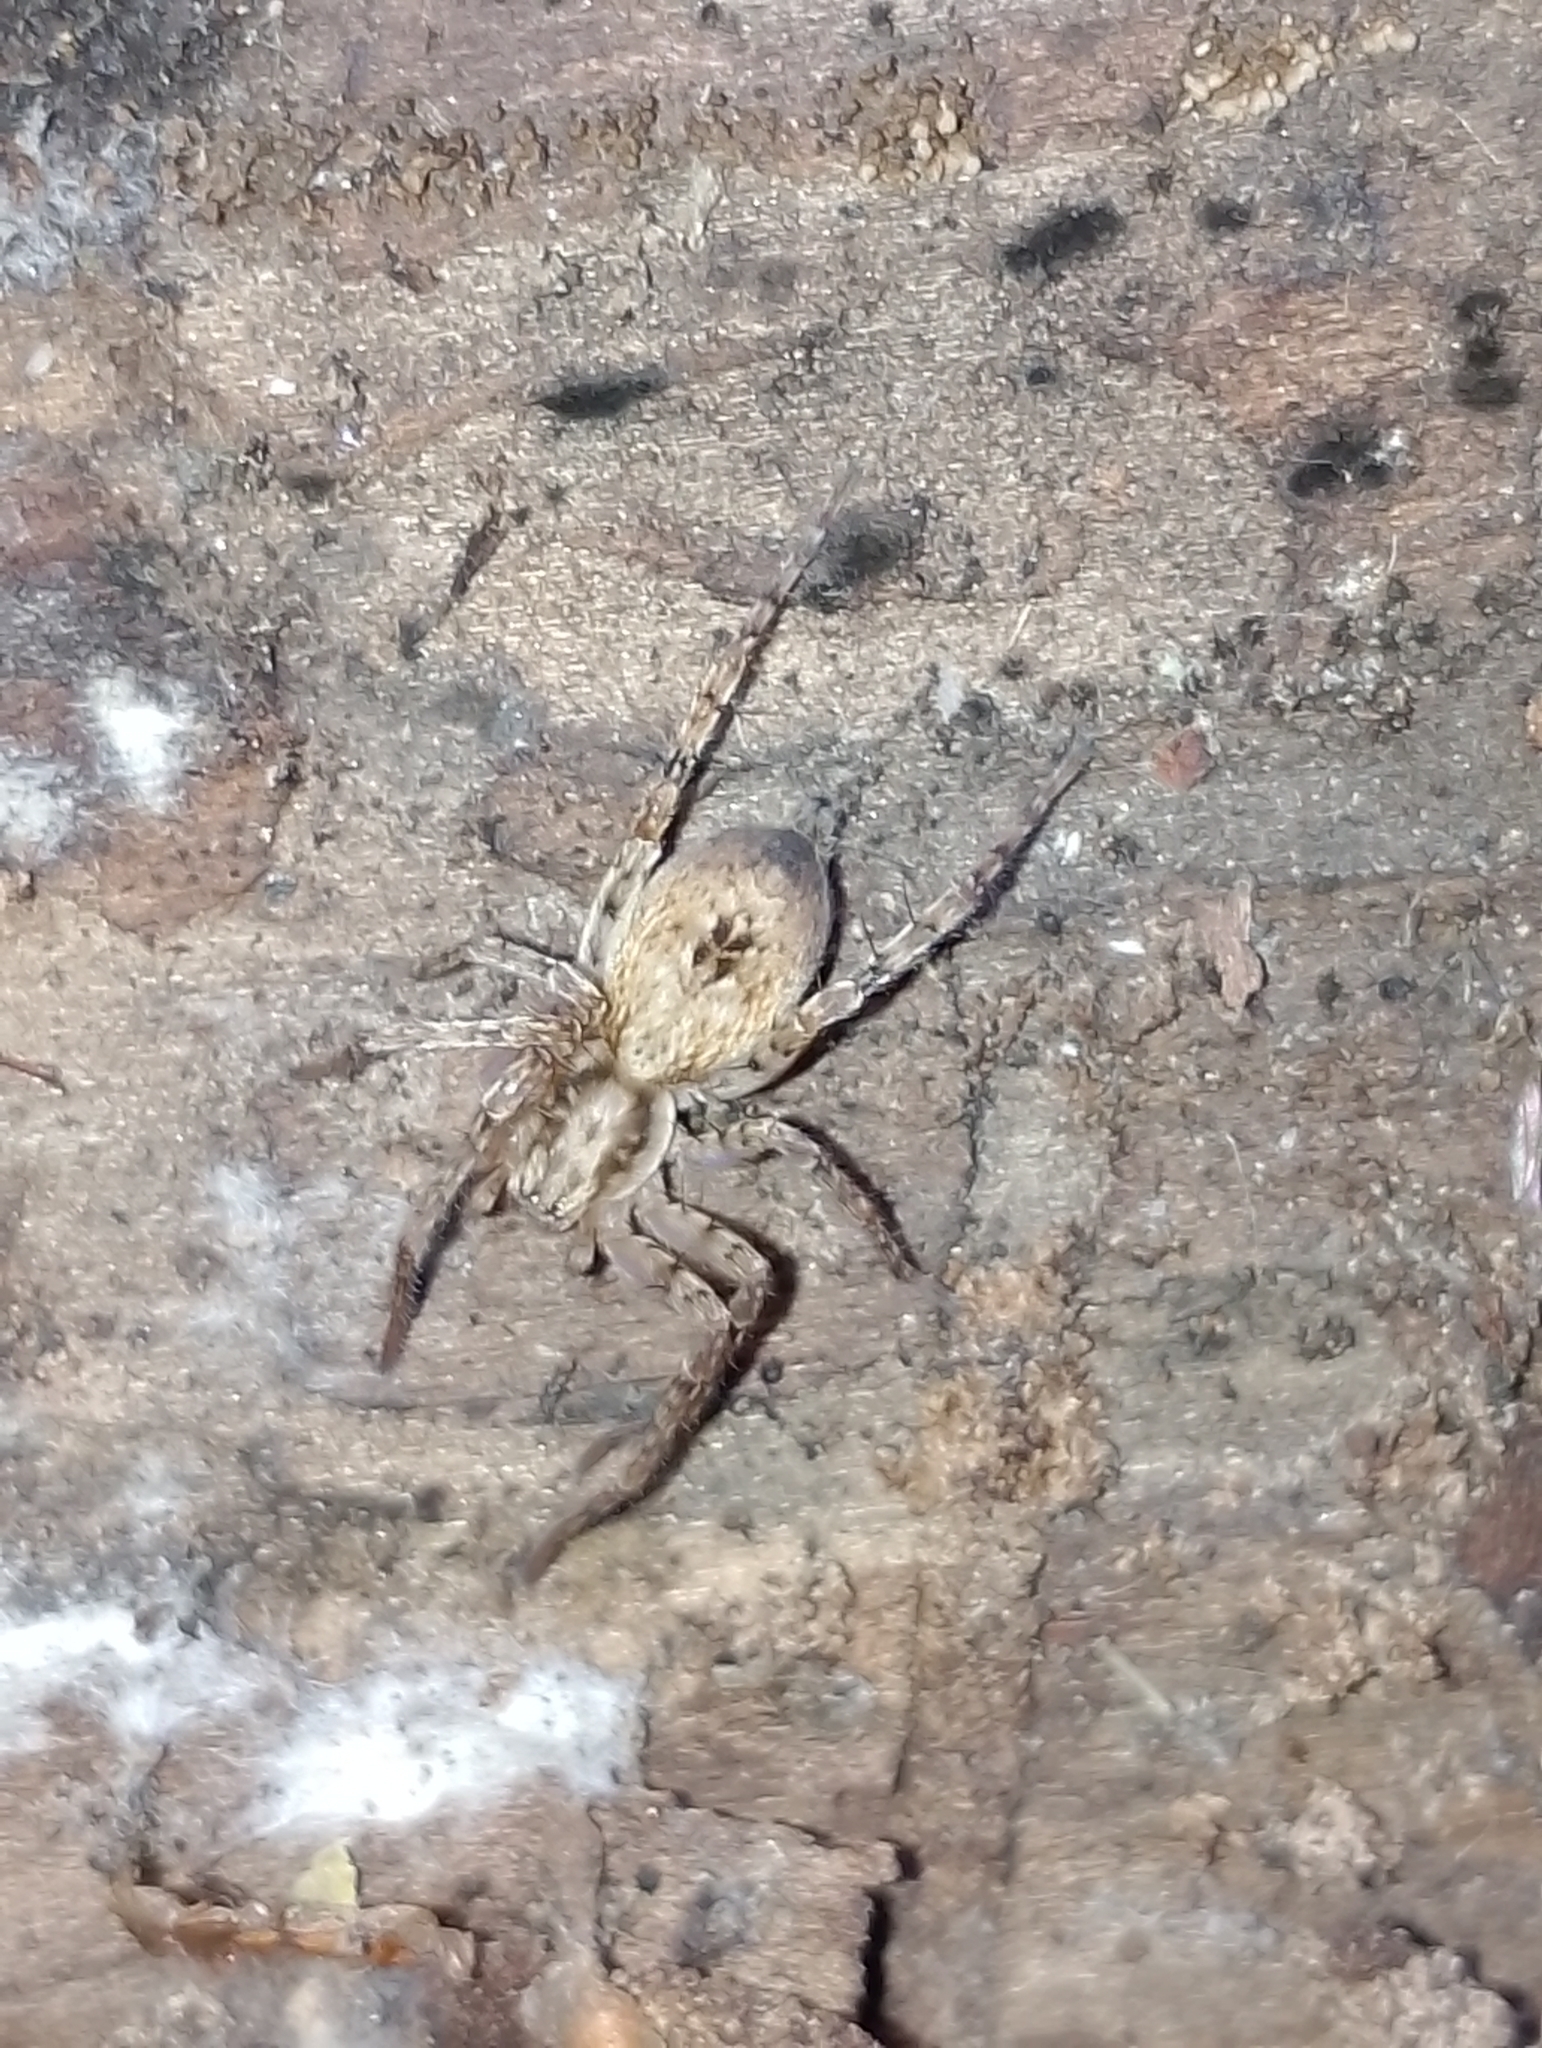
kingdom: Animalia
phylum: Arthropoda
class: Arachnida
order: Araneae
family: Anyphaenidae
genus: Anyphaena
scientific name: Anyphaena accentuata
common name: Buzzing spider
